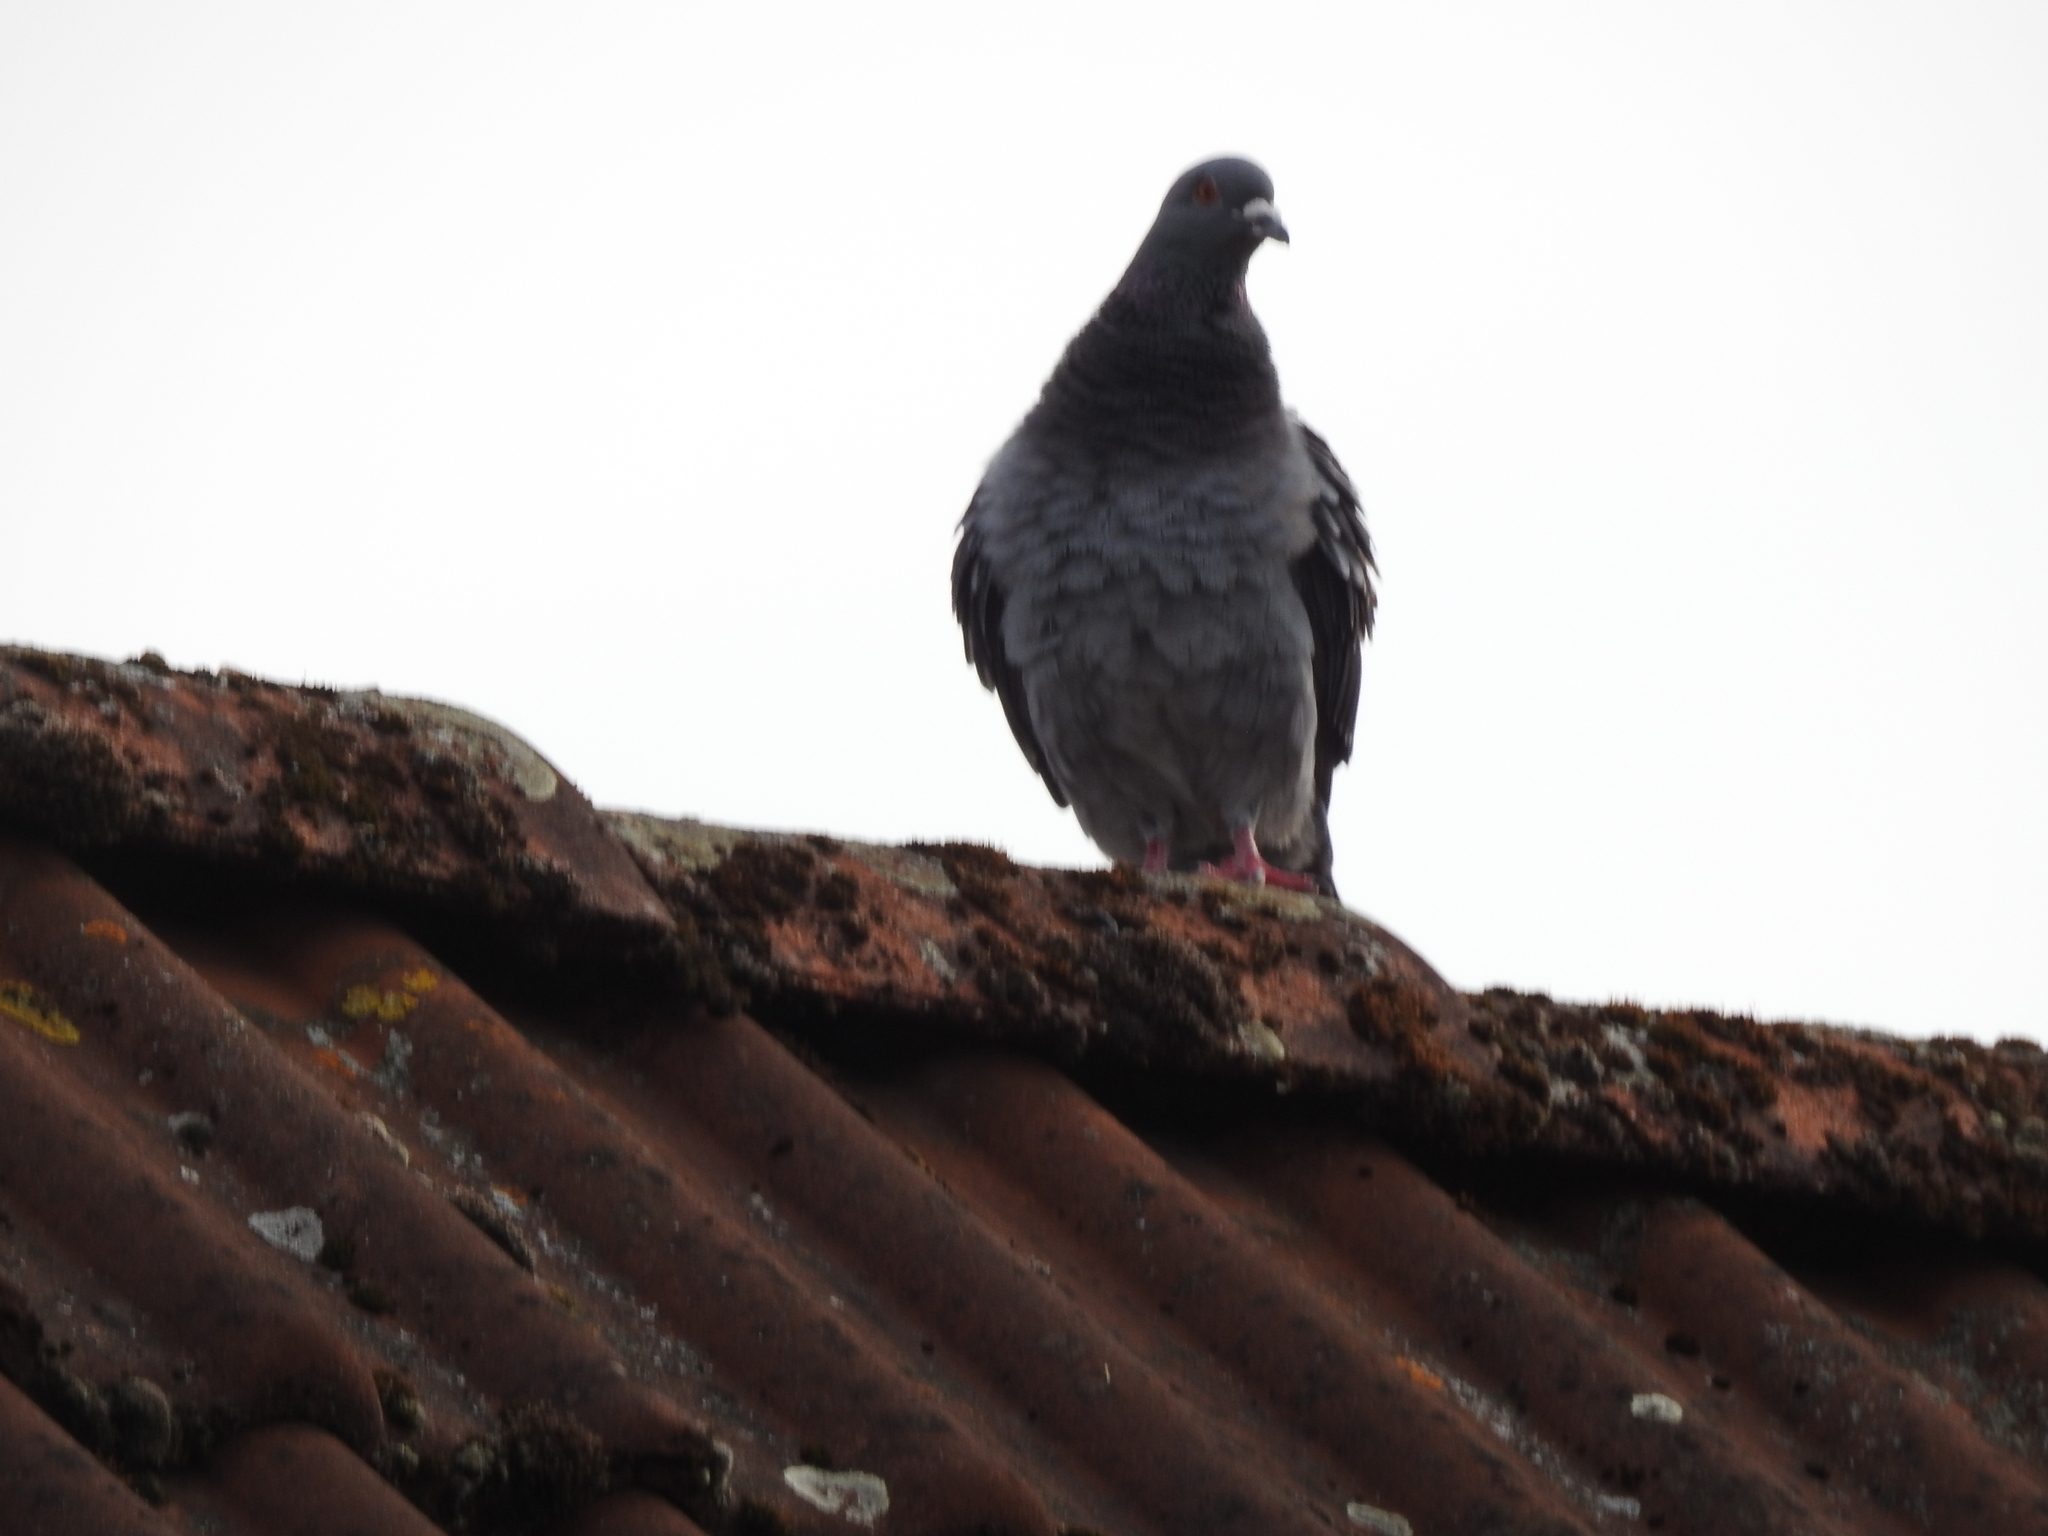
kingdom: Animalia
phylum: Chordata
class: Aves
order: Columbiformes
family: Columbidae
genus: Columba
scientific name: Columba livia
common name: Rock pigeon
